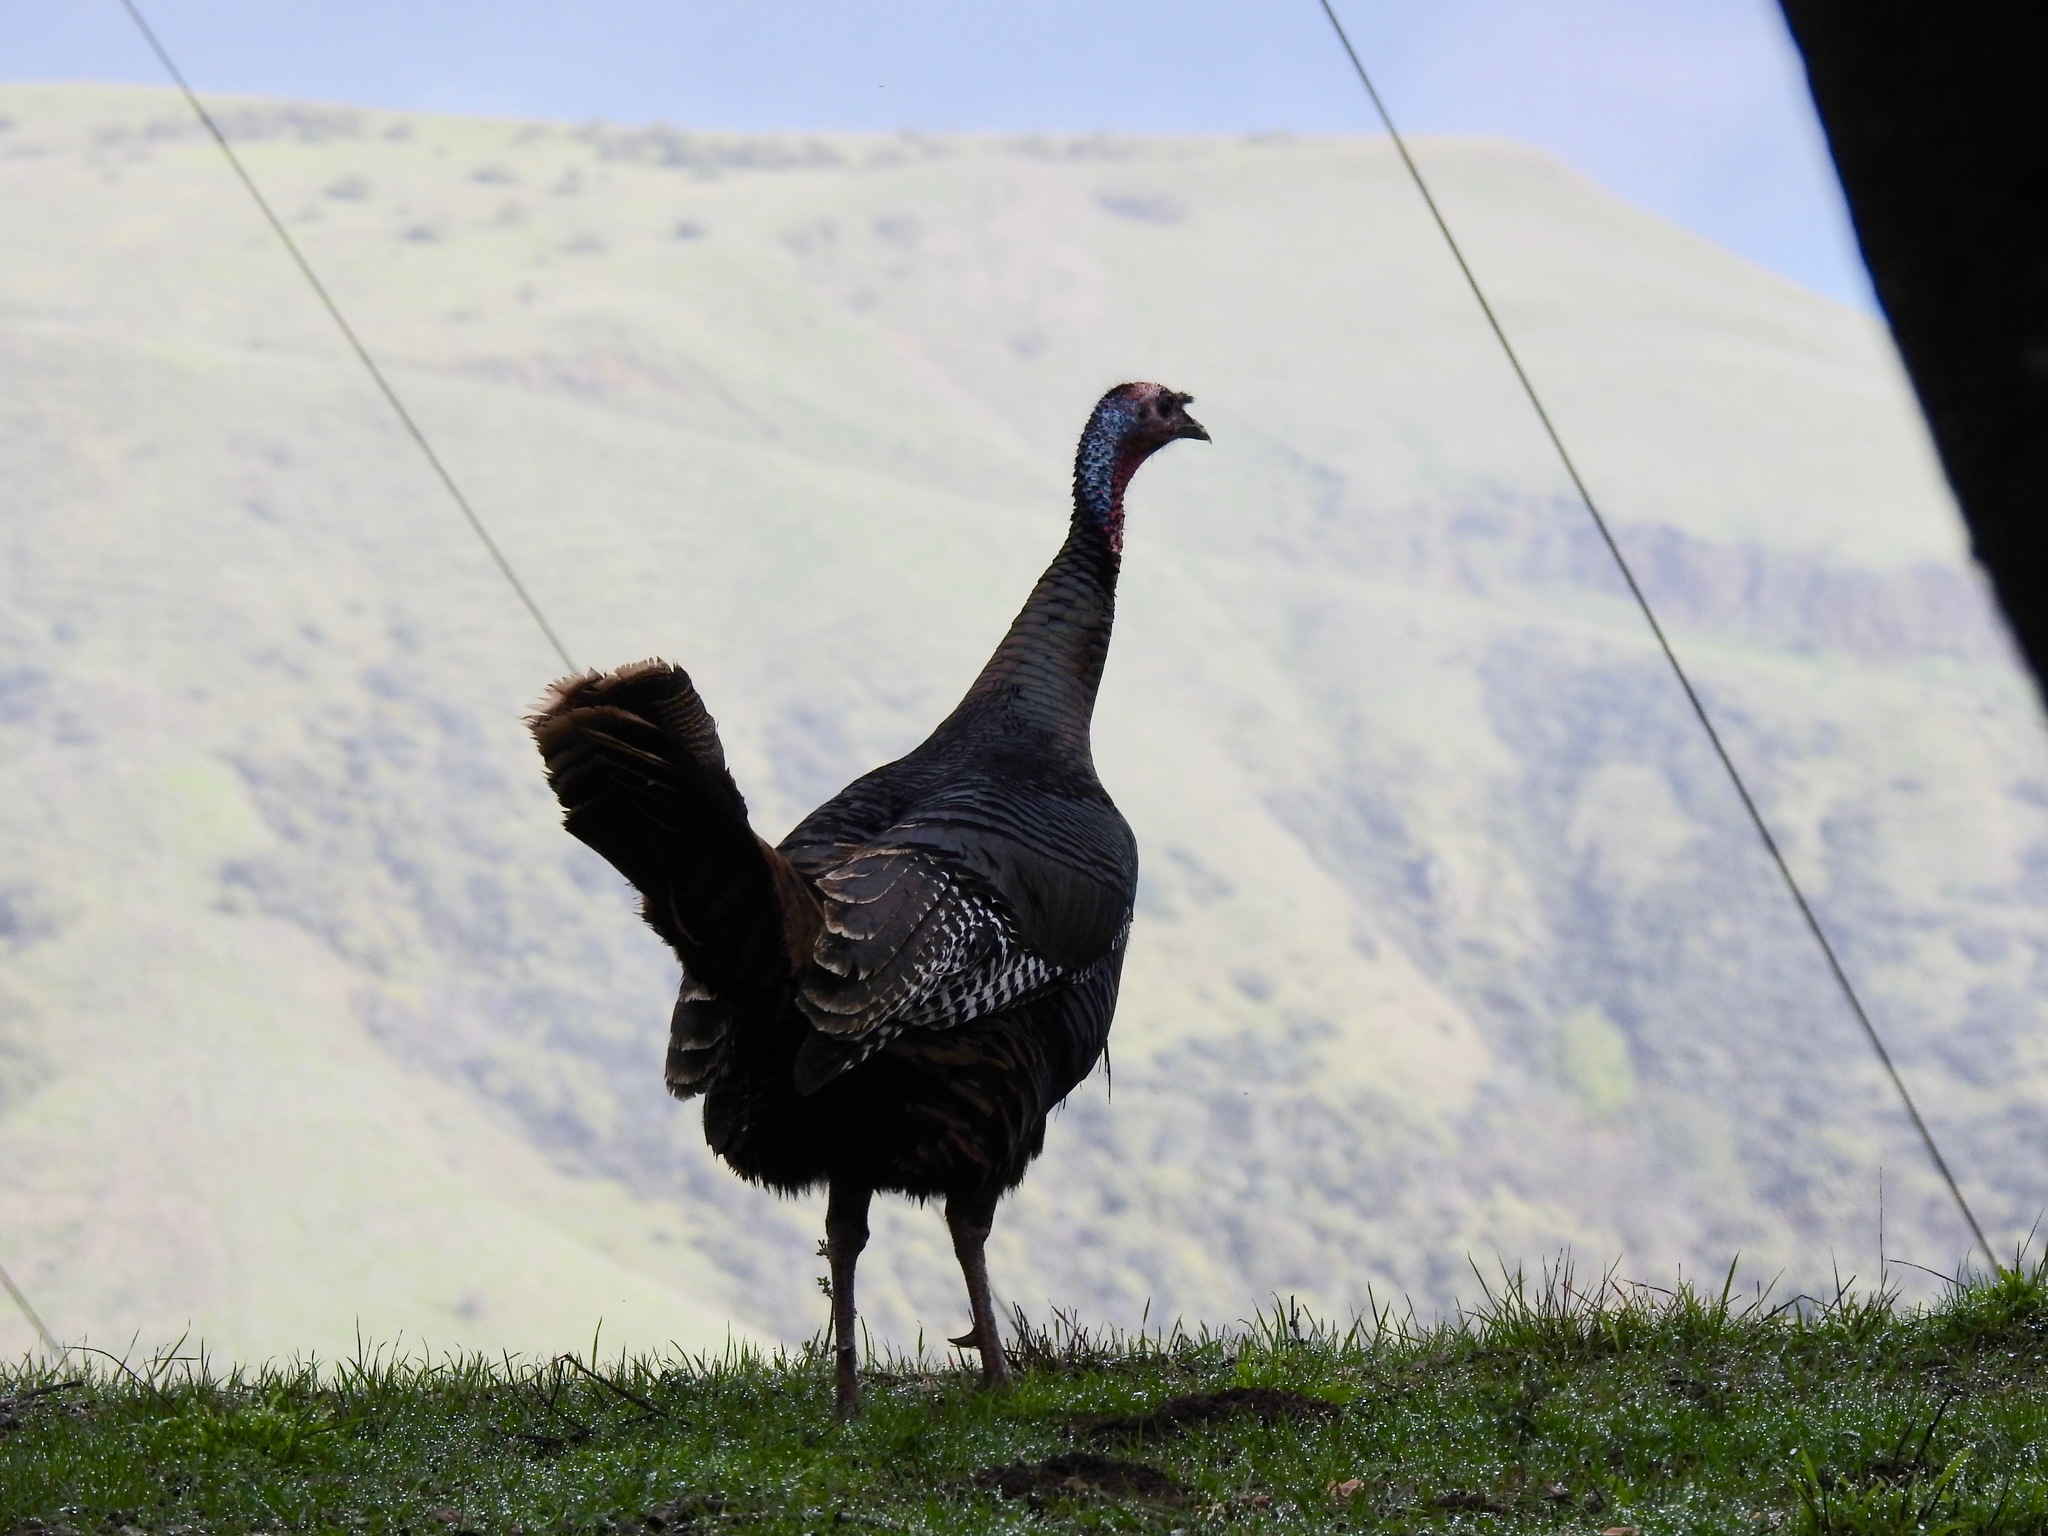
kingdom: Animalia
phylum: Chordata
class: Aves
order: Galliformes
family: Phasianidae
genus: Meleagris
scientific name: Meleagris gallopavo
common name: Wild turkey
